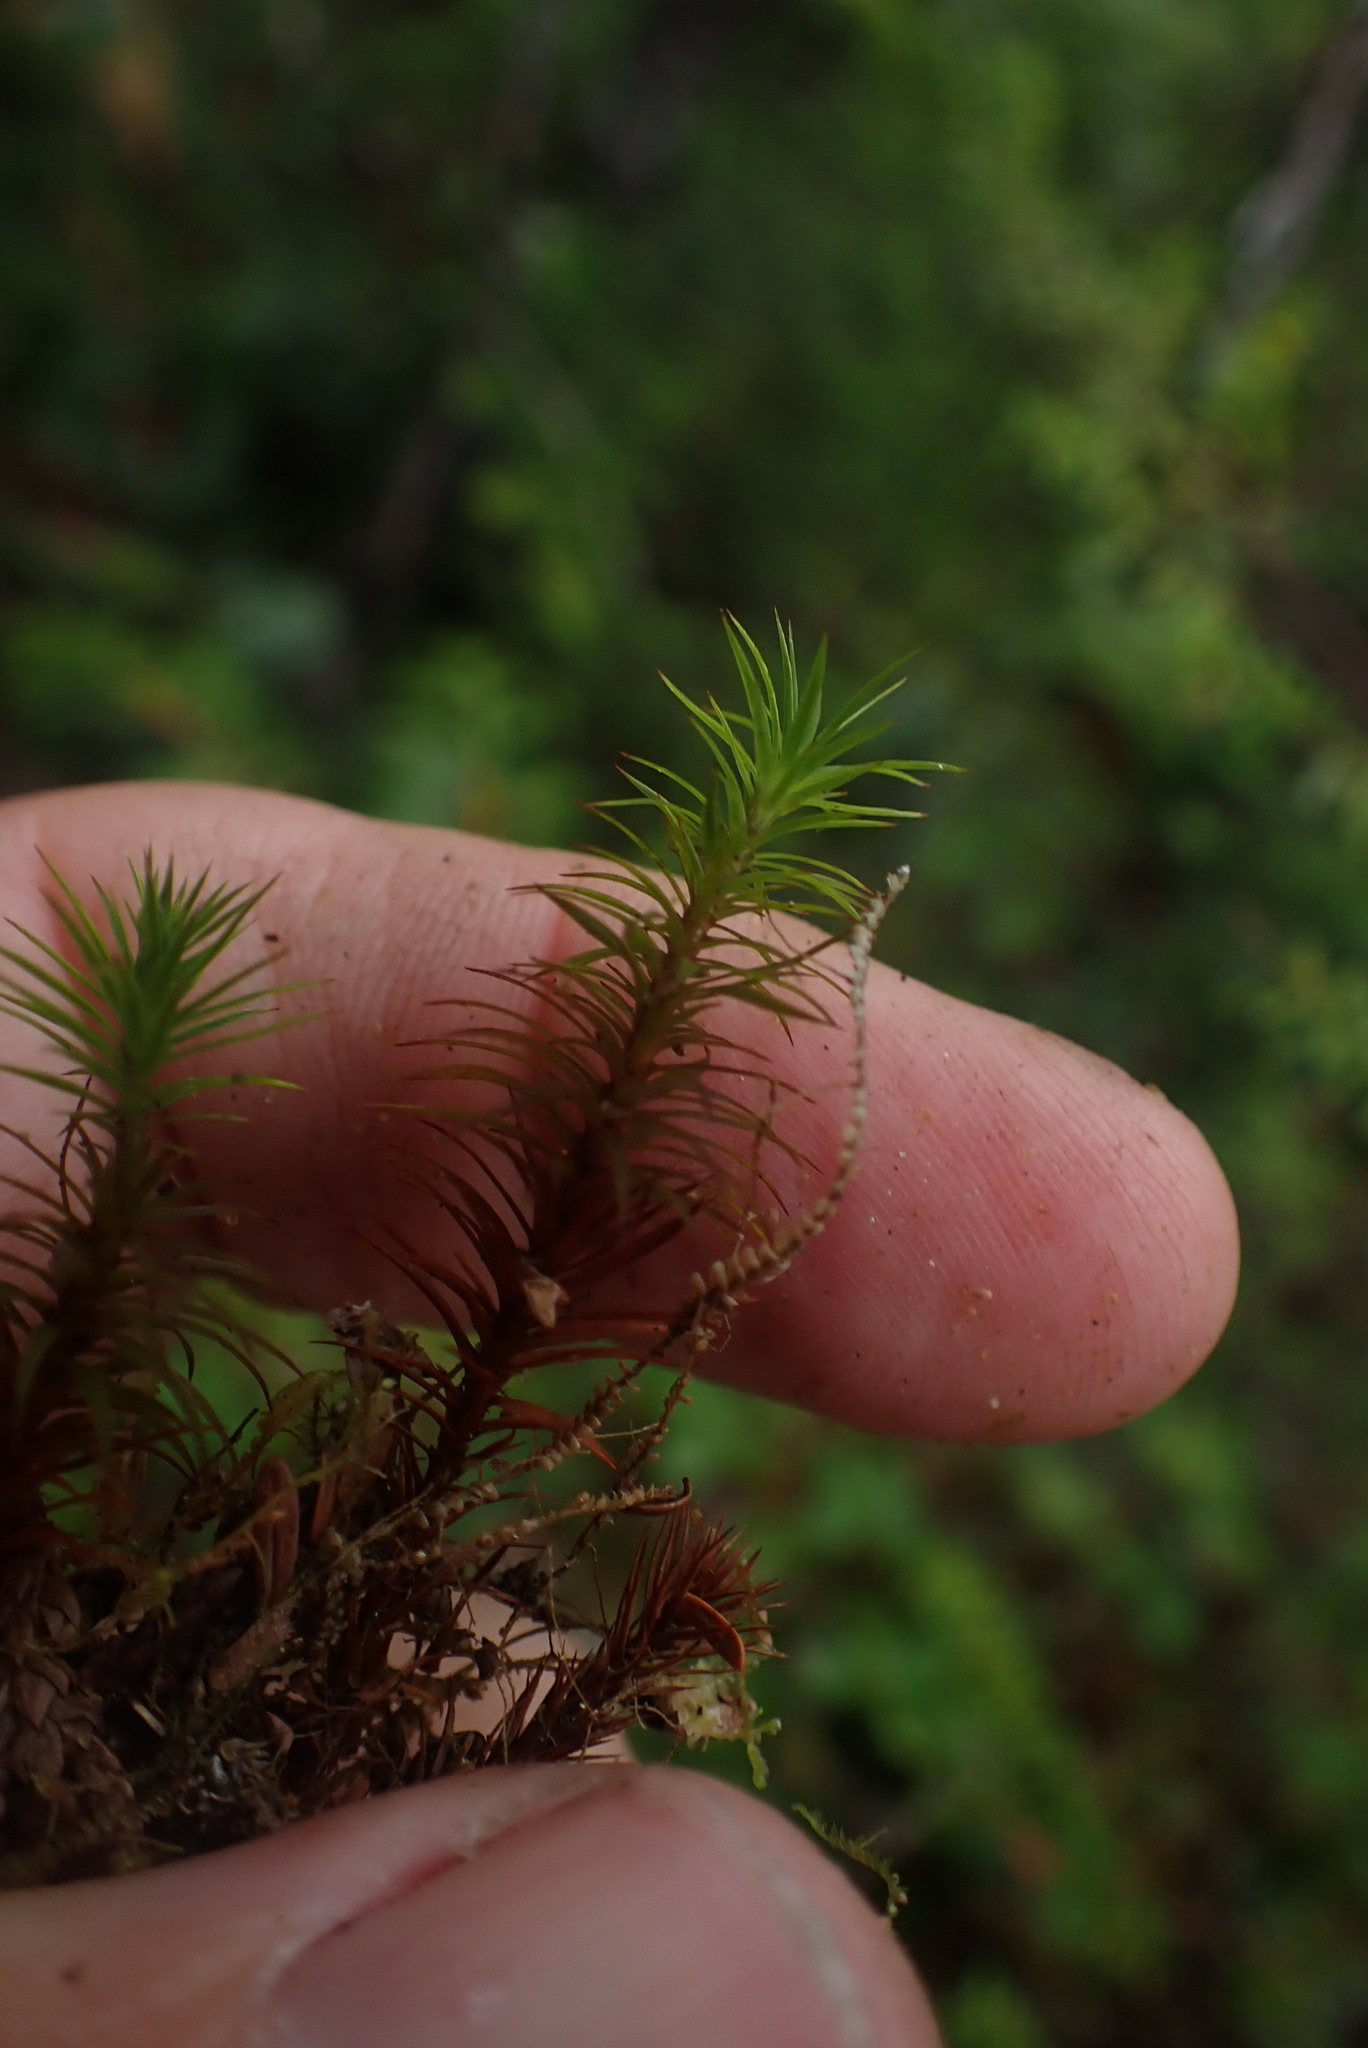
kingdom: Plantae
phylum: Bryophyta
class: Polytrichopsida
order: Polytrichales
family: Polytrichaceae
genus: Pogonatum
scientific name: Pogonatum contortum
